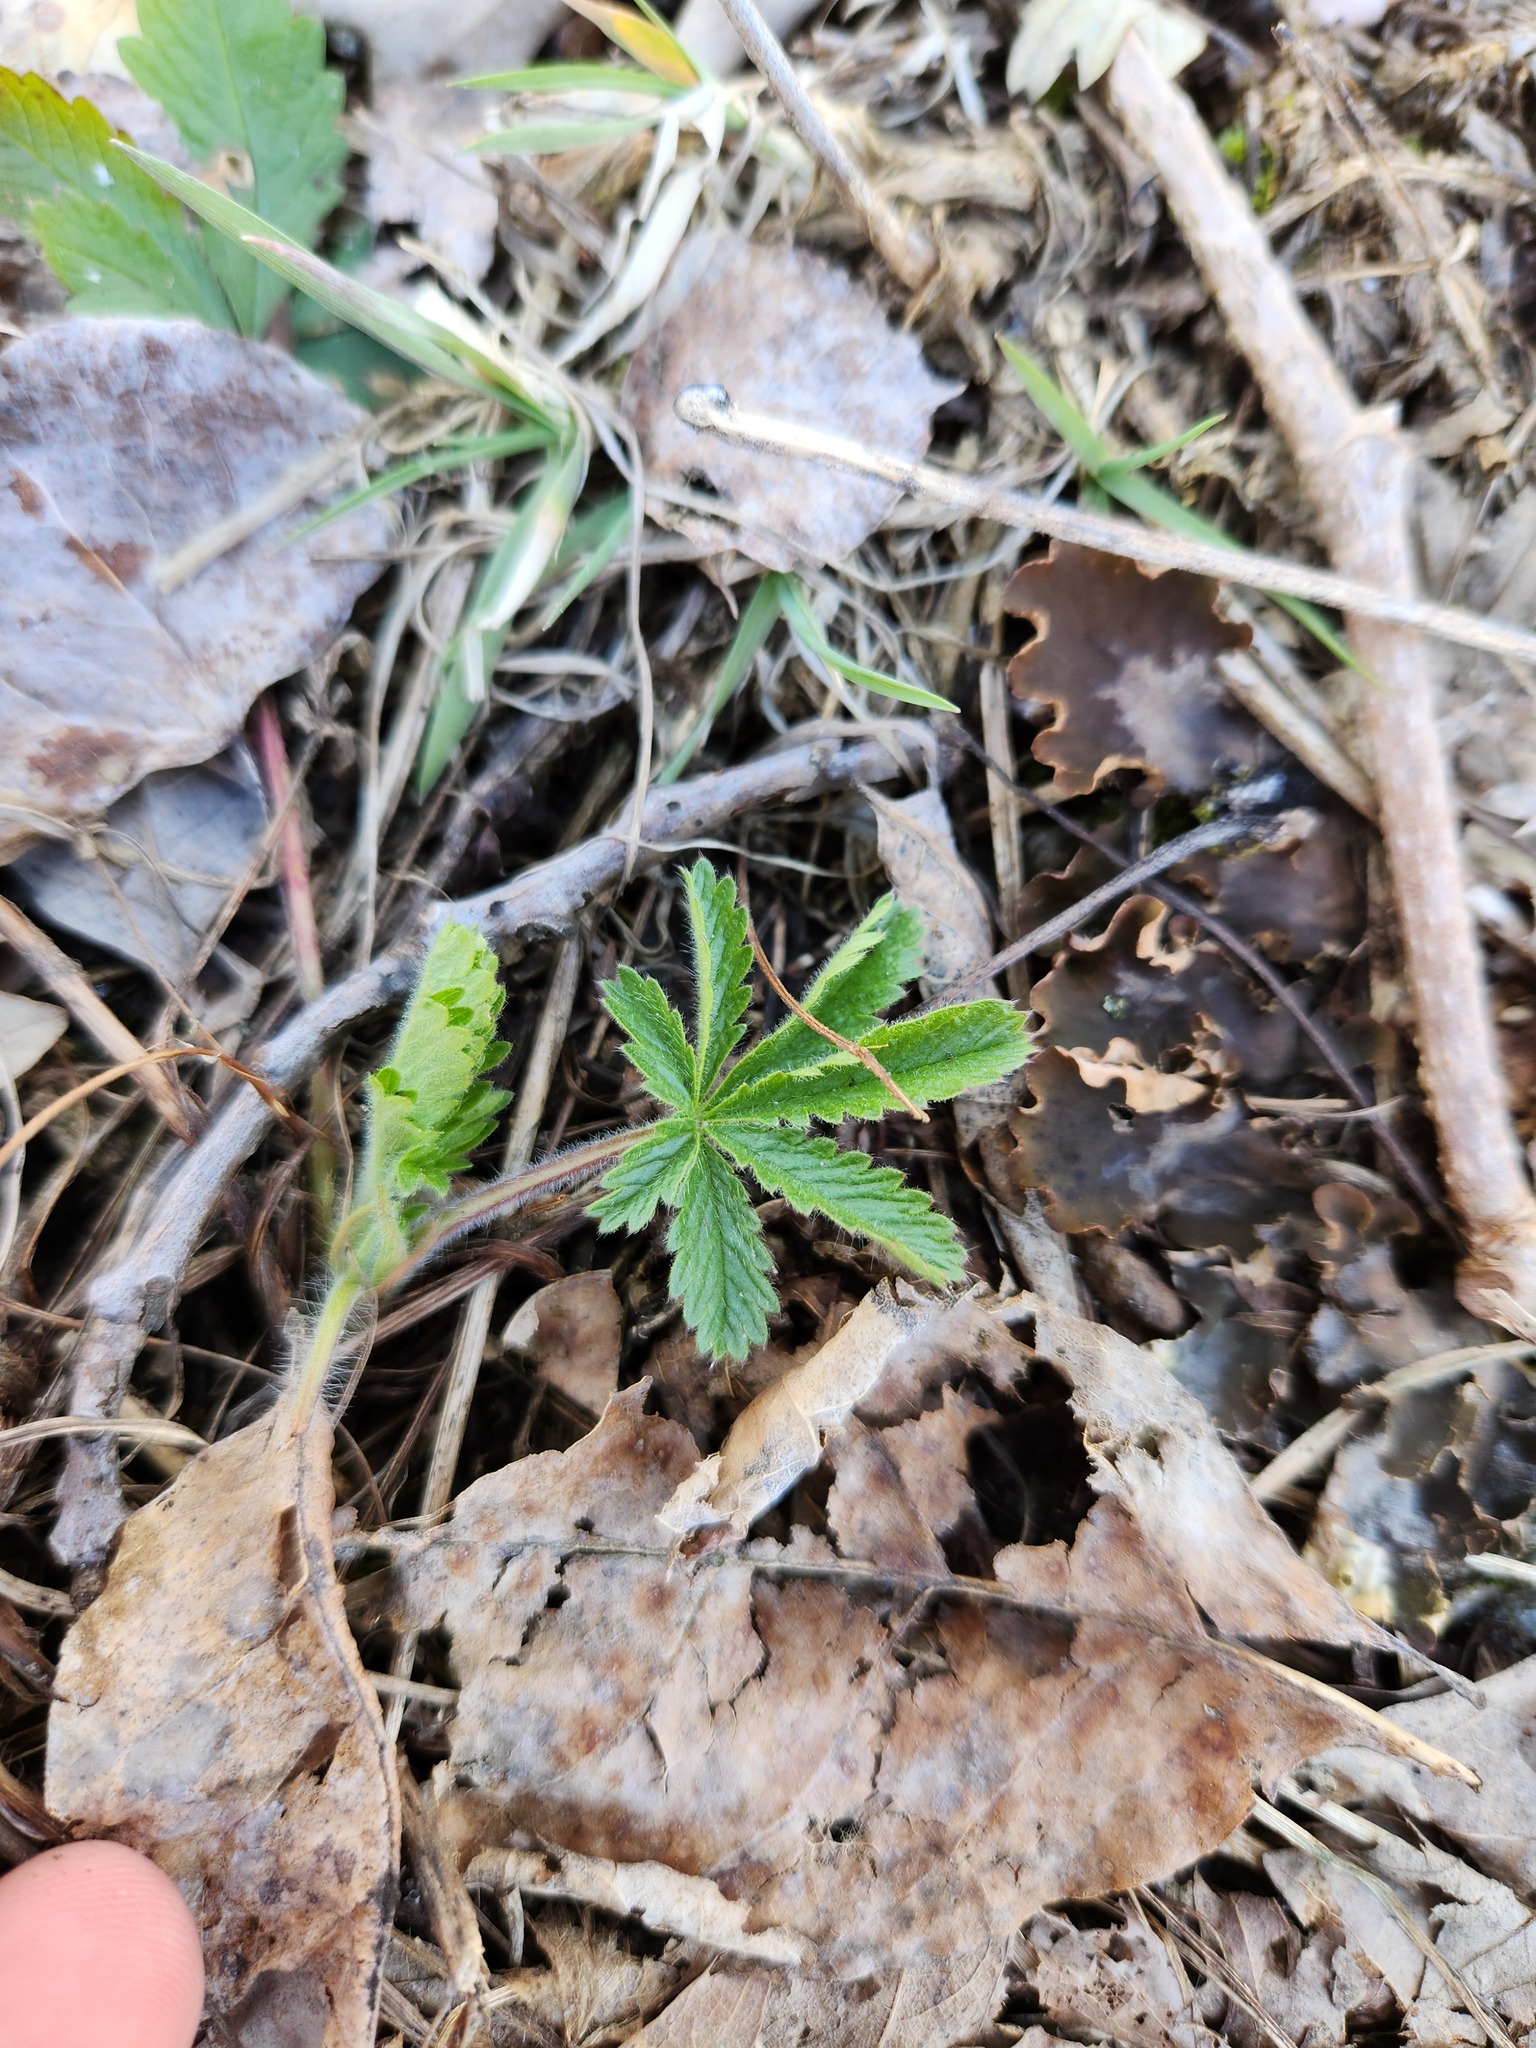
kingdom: Plantae
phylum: Tracheophyta
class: Magnoliopsida
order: Rosales
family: Rosaceae
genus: Potentilla
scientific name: Potentilla recta
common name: Sulphur cinquefoil
